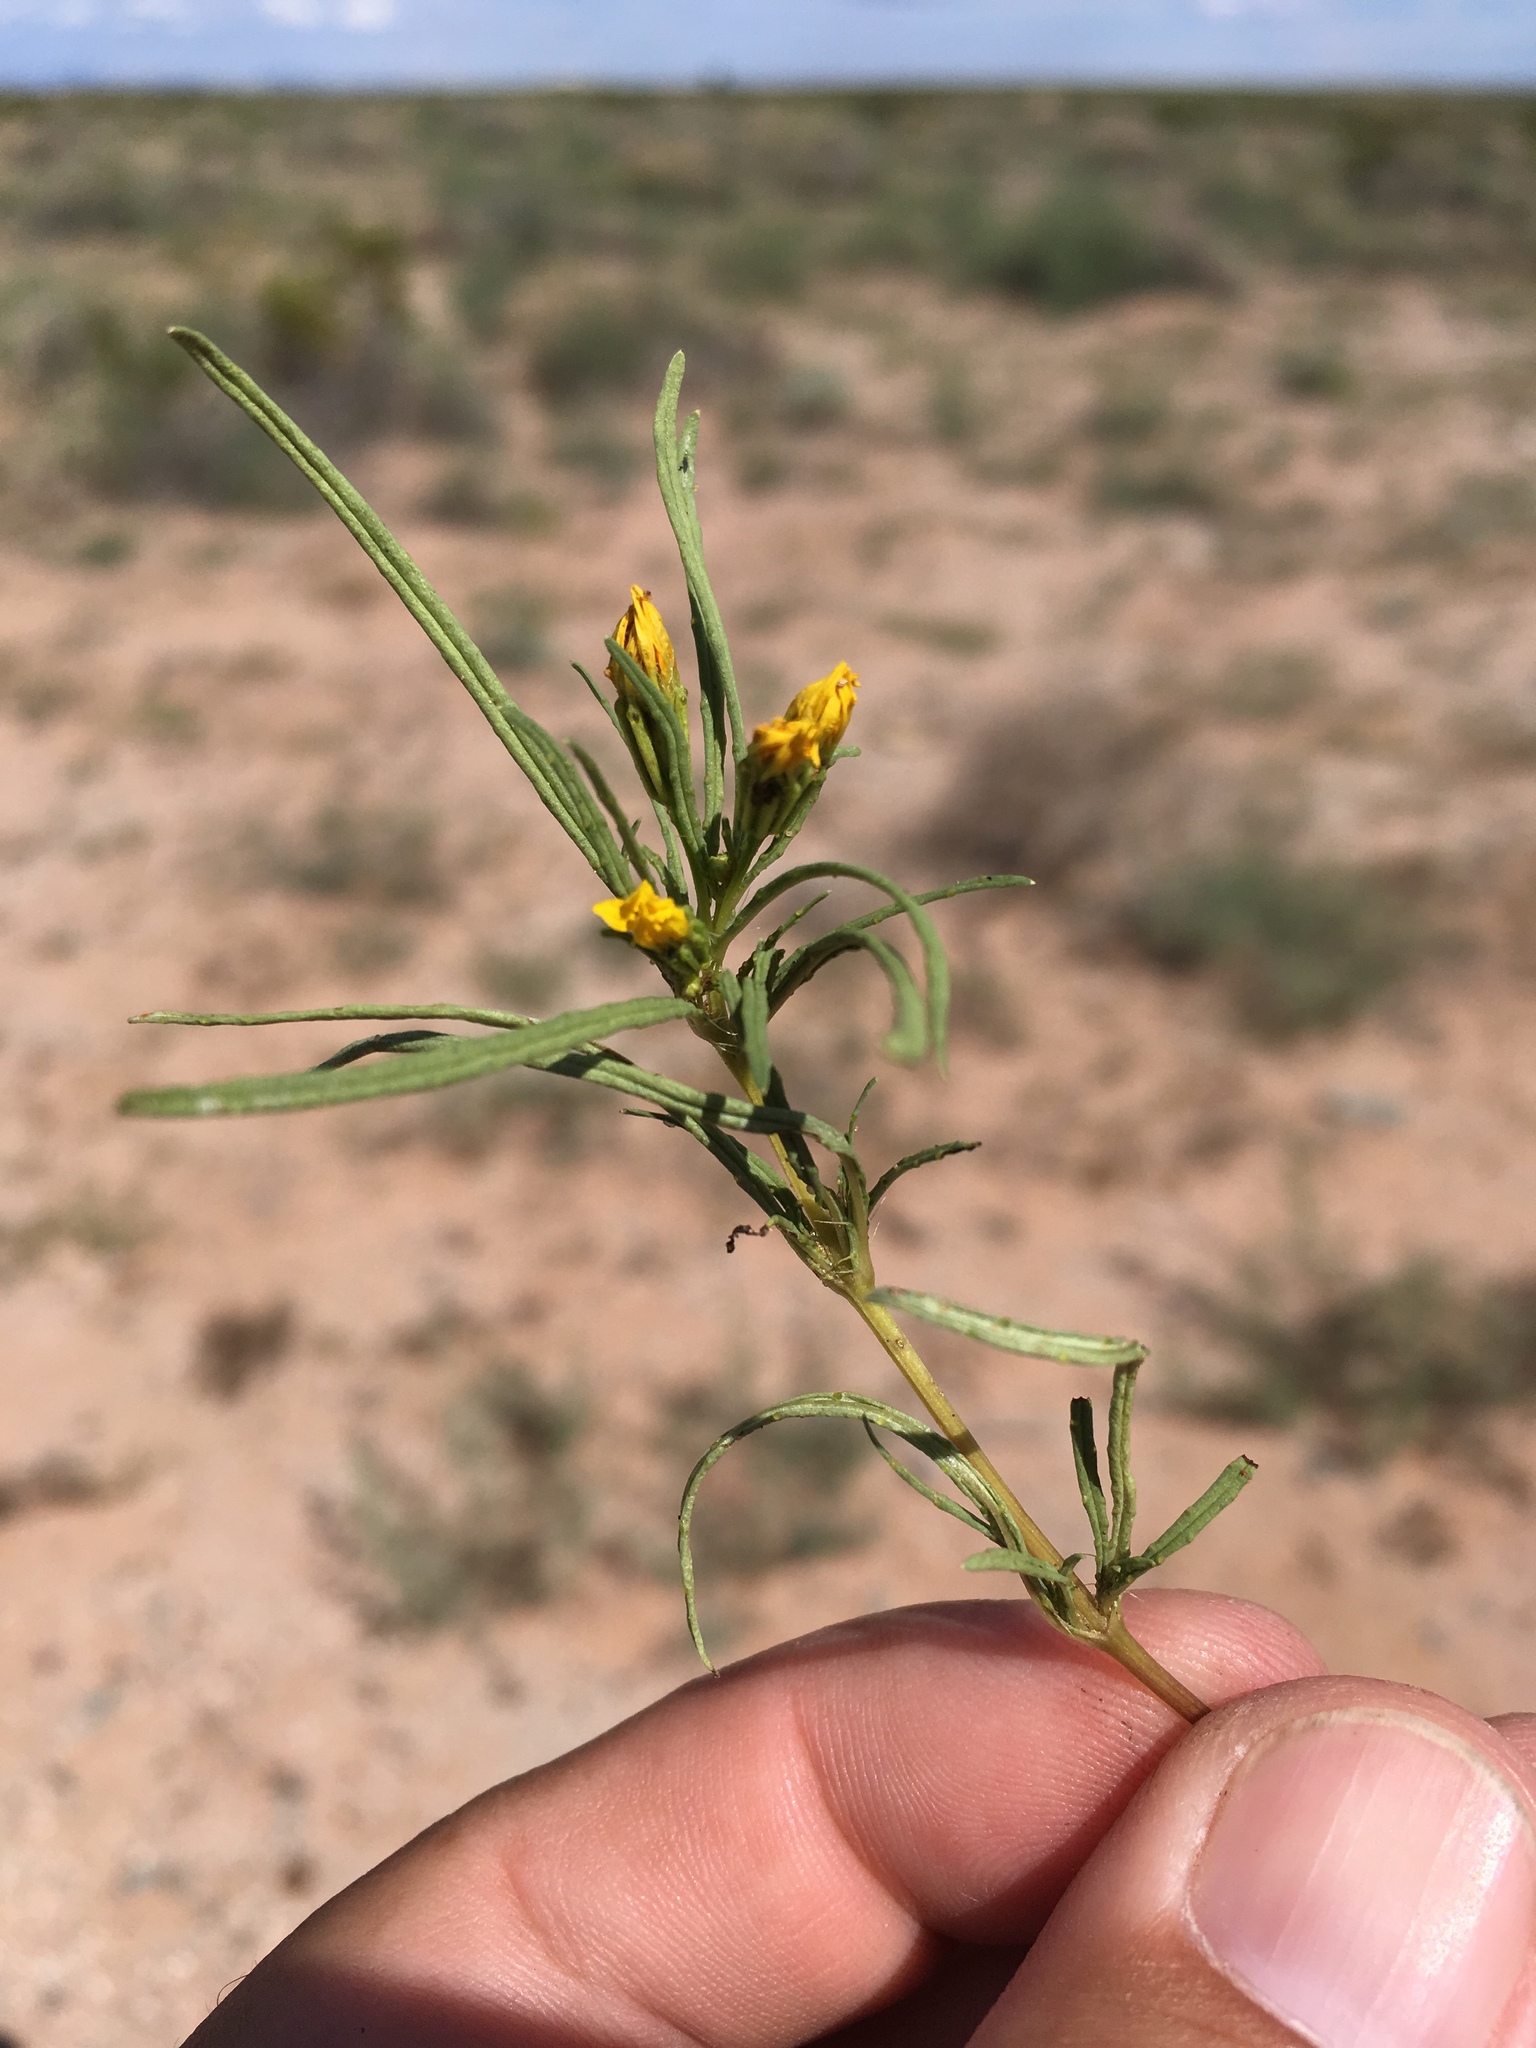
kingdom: Plantae
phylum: Tracheophyta
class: Magnoliopsida
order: Asterales
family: Asteraceae
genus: Pectis
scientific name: Pectis papposa
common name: Many-bristle chinchweed
